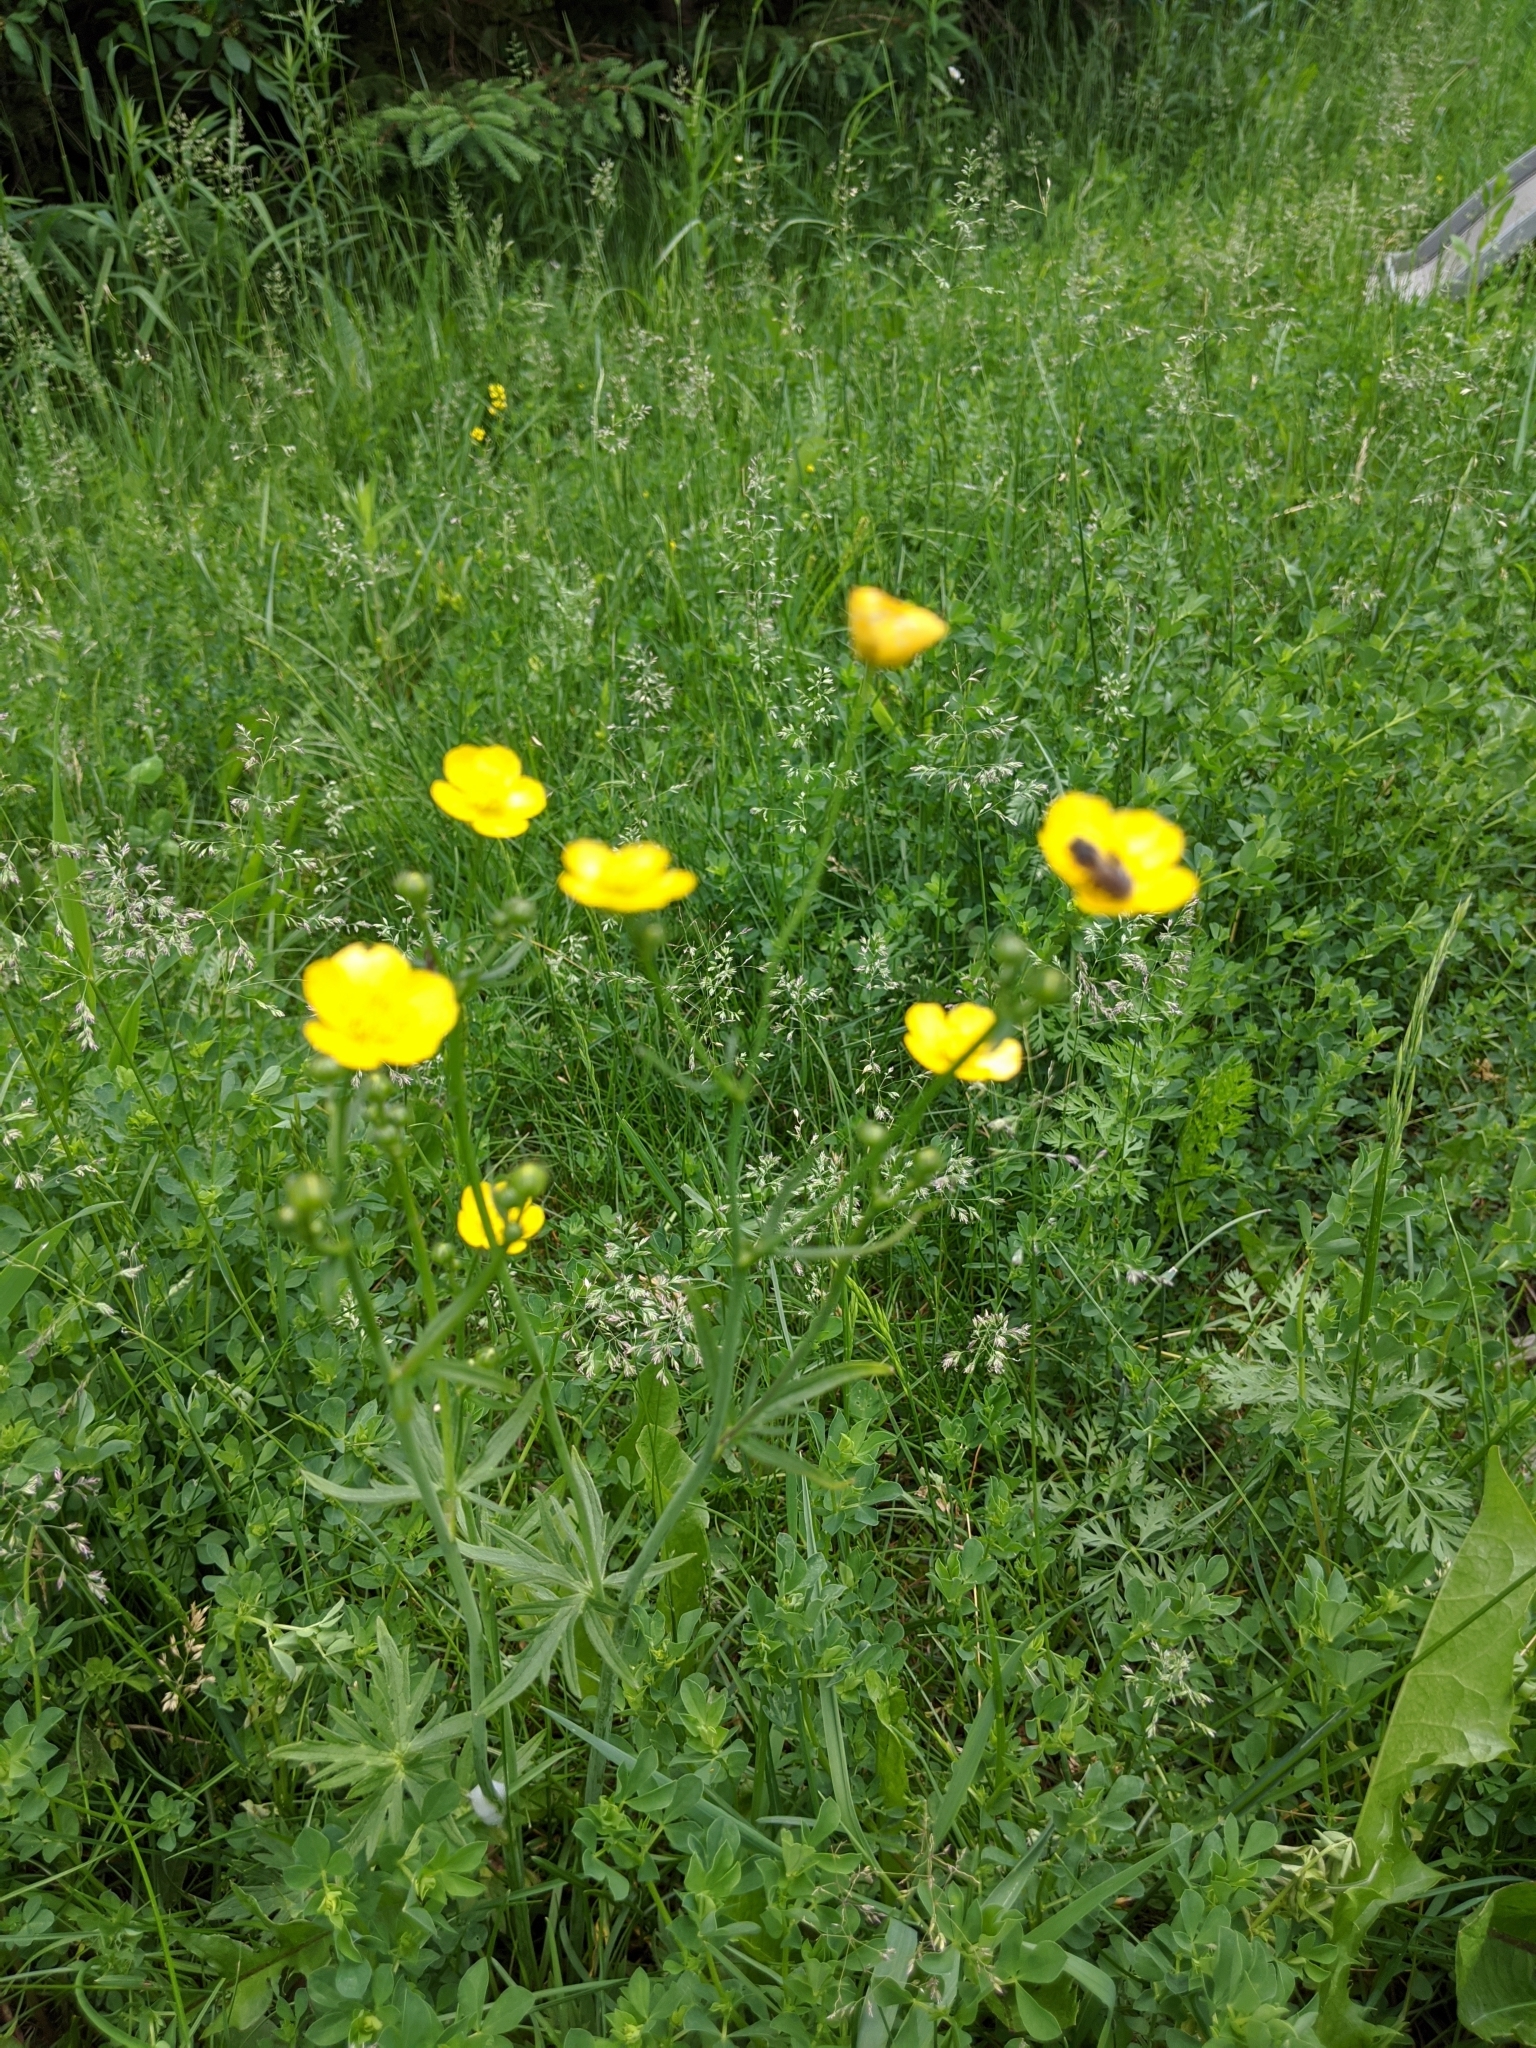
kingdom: Plantae
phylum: Tracheophyta
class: Magnoliopsida
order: Ranunculales
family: Ranunculaceae
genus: Ranunculus
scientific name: Ranunculus acris
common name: Meadow buttercup
